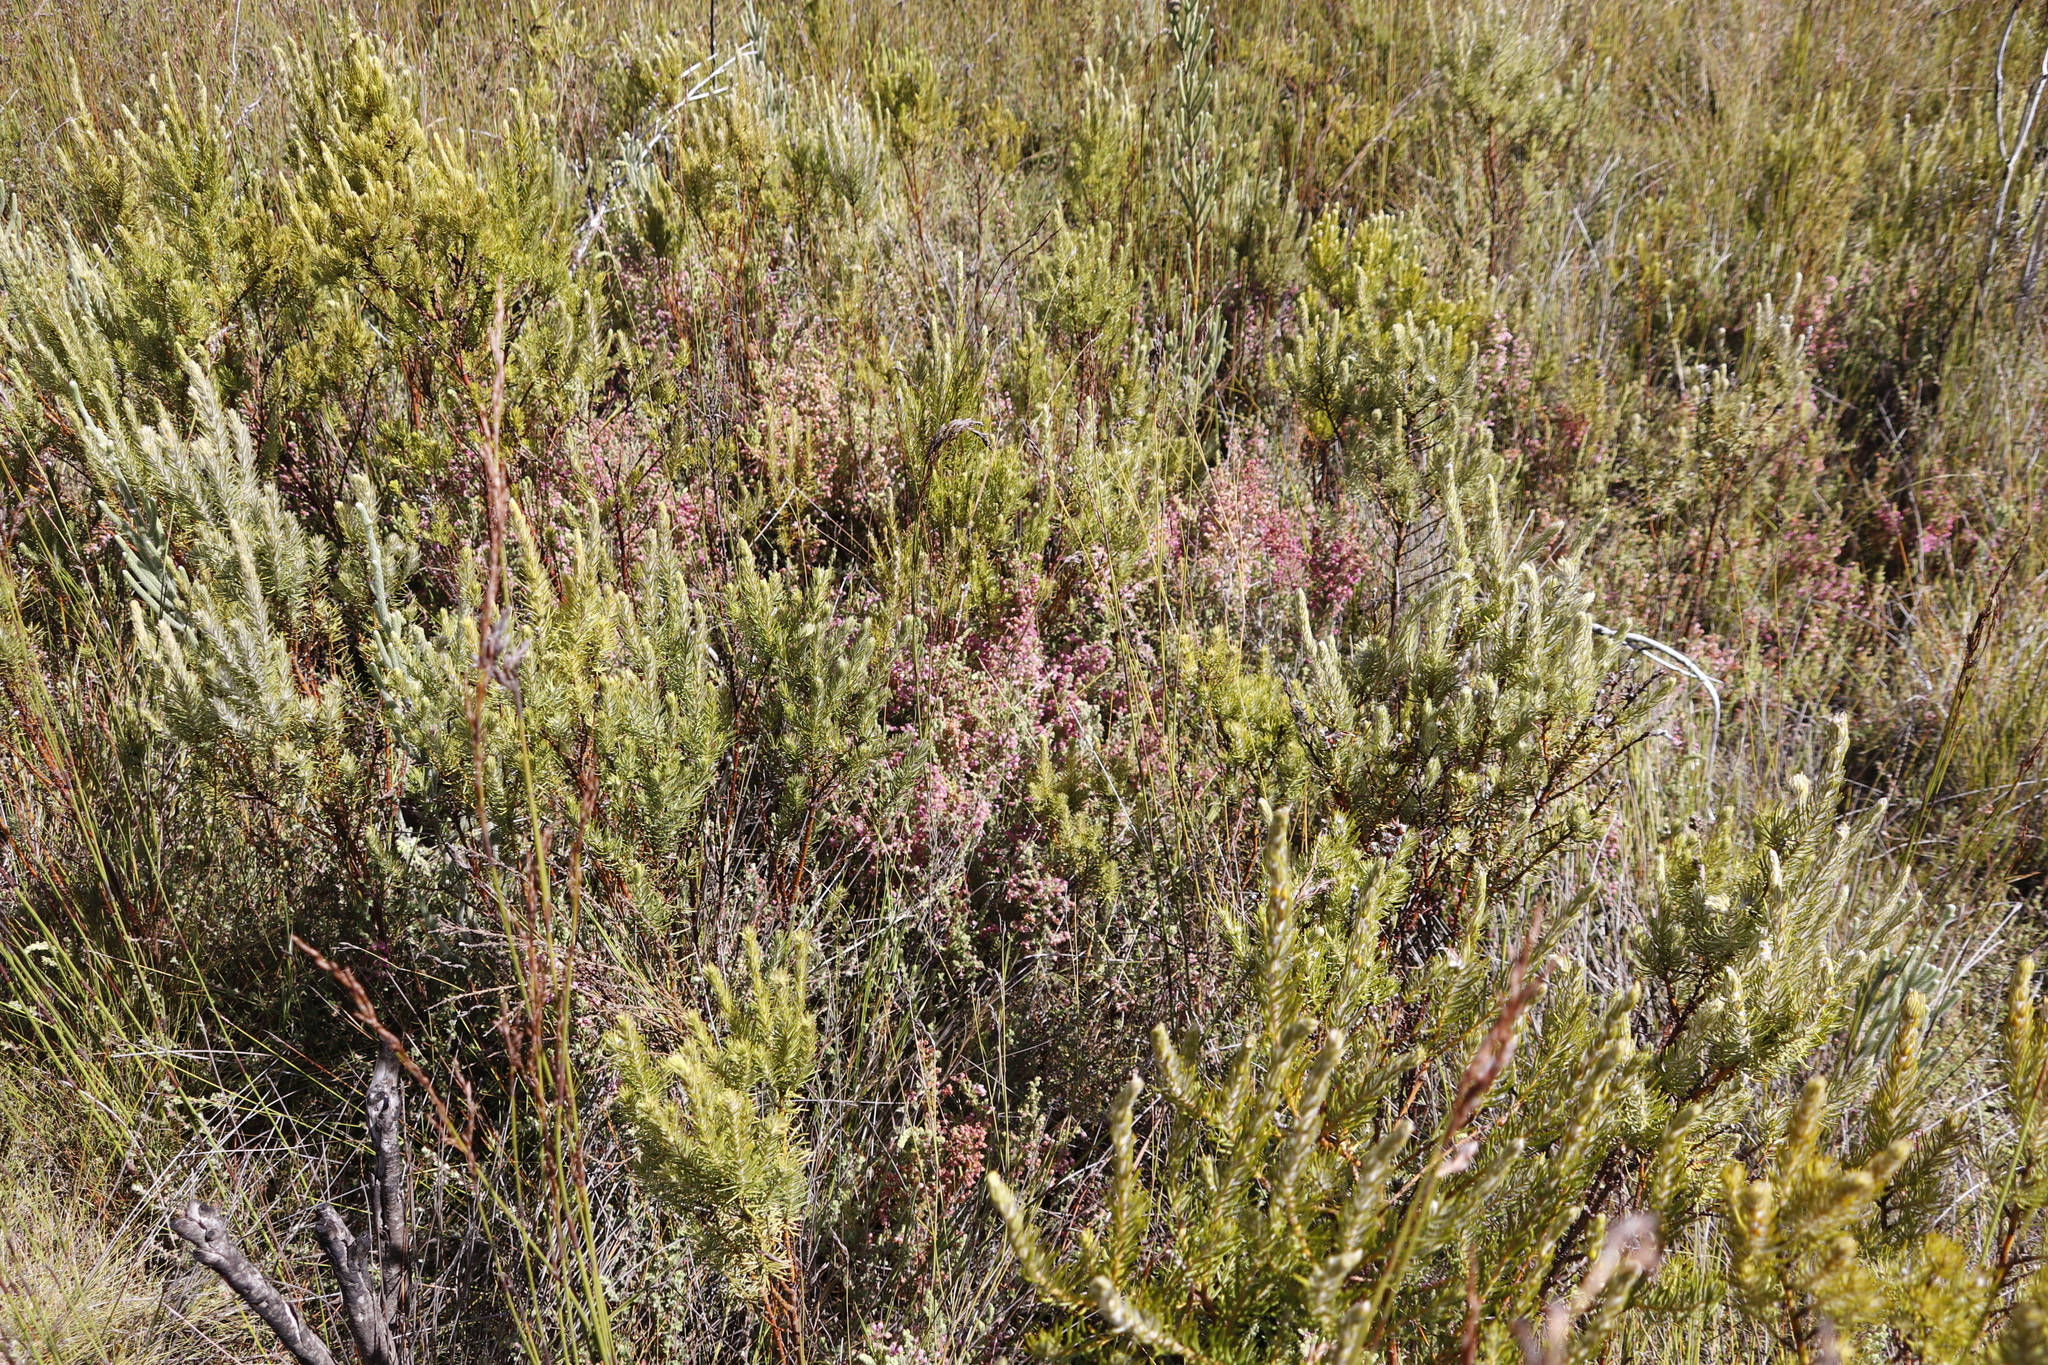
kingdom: Plantae
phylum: Tracheophyta
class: Magnoliopsida
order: Ericales
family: Ericaceae
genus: Erica
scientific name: Erica bergiana
